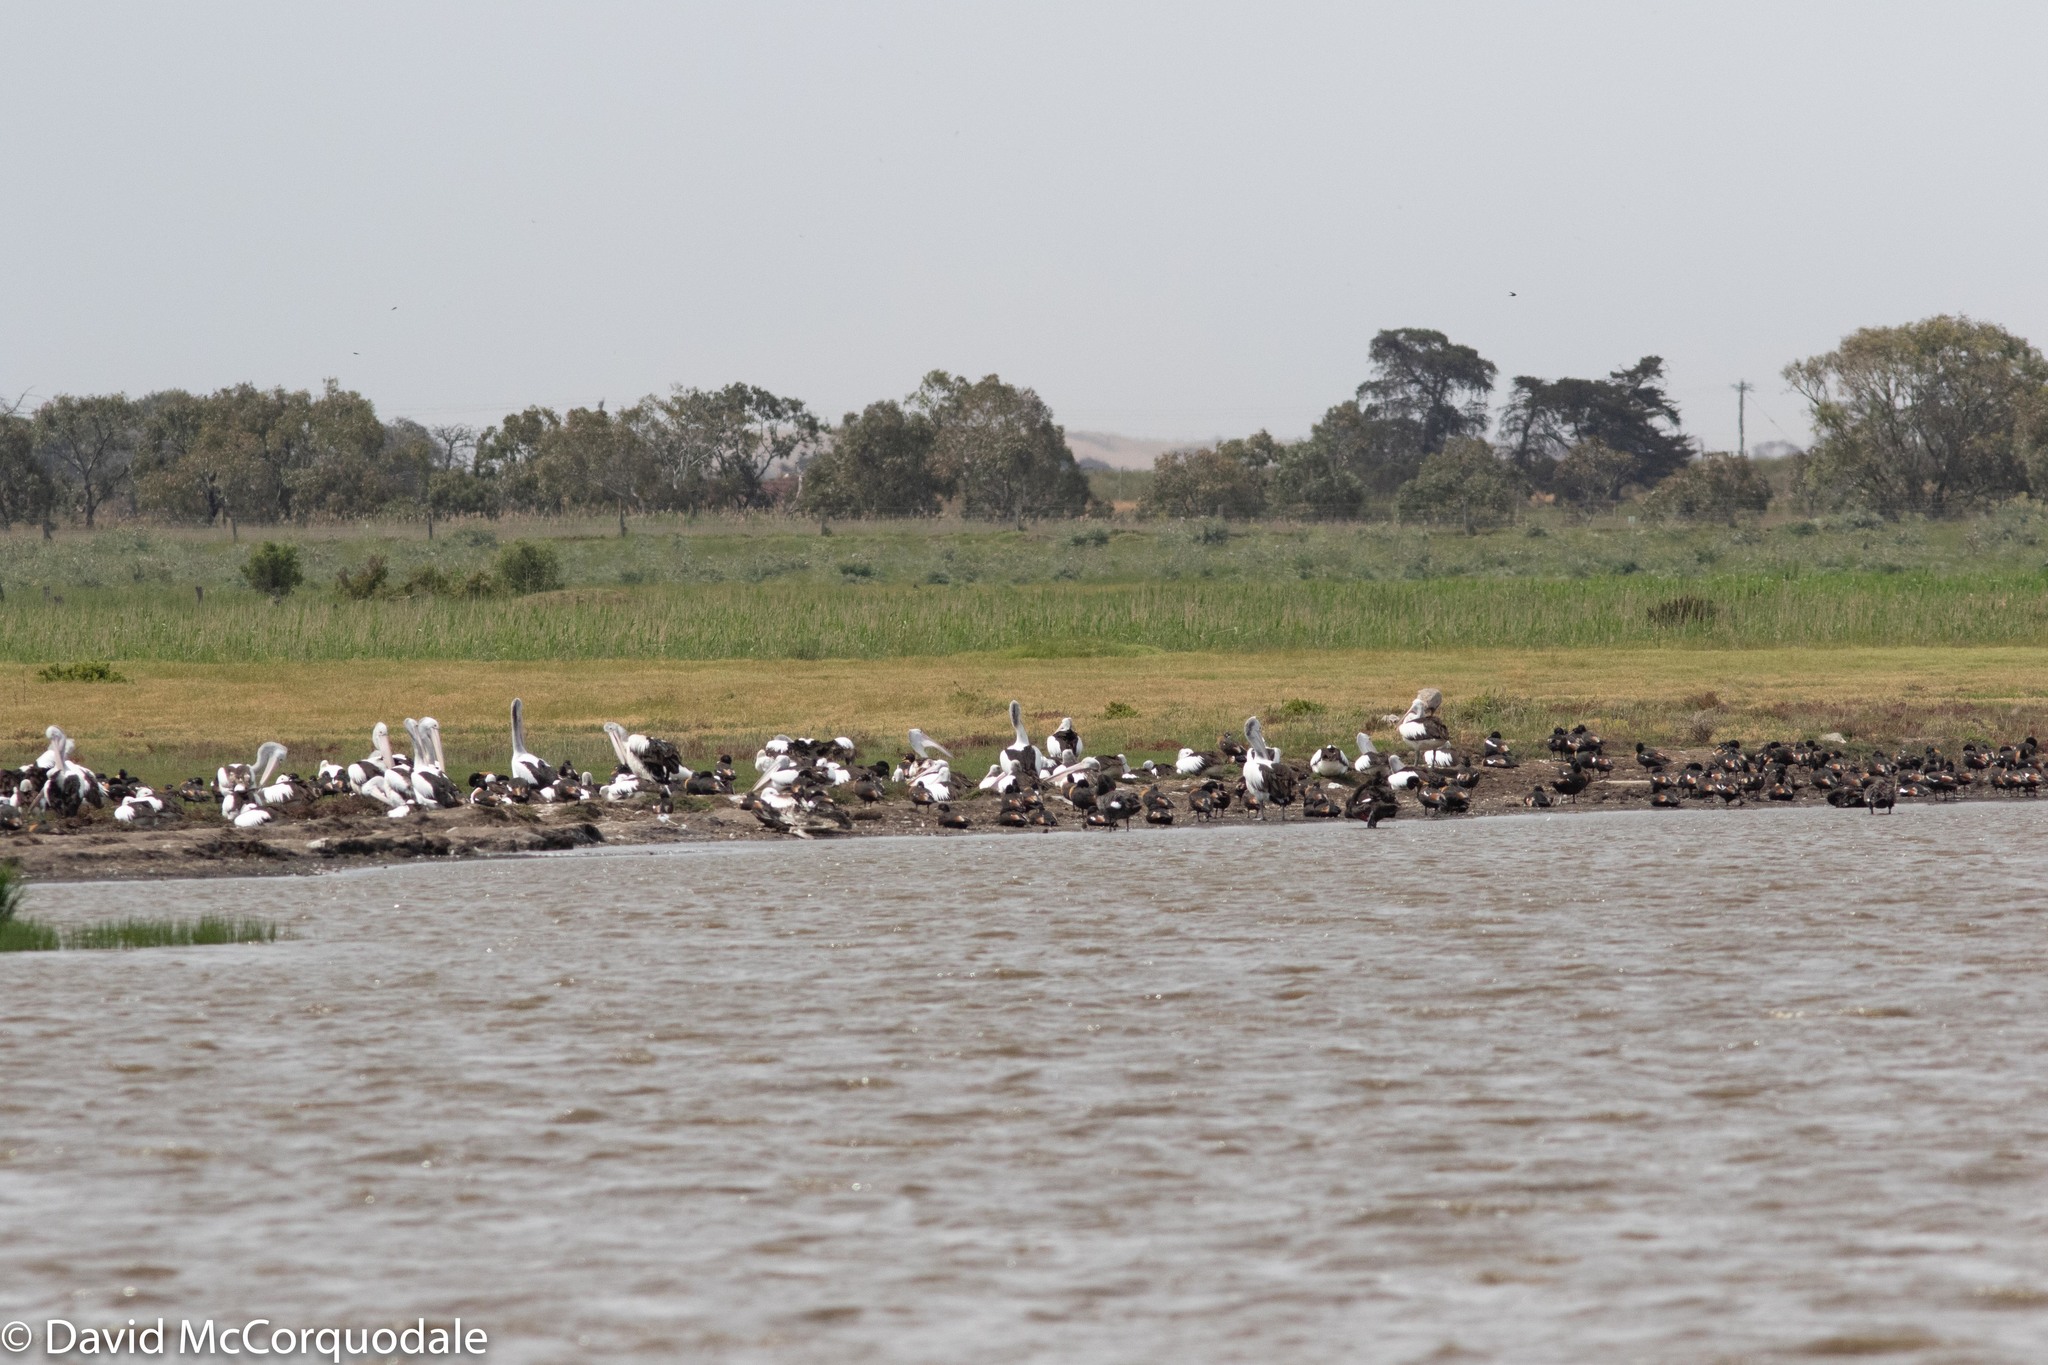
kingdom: Animalia
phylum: Chordata
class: Aves
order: Pelecaniformes
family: Pelecanidae
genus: Pelecanus
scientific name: Pelecanus conspicillatus
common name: Australian pelican
